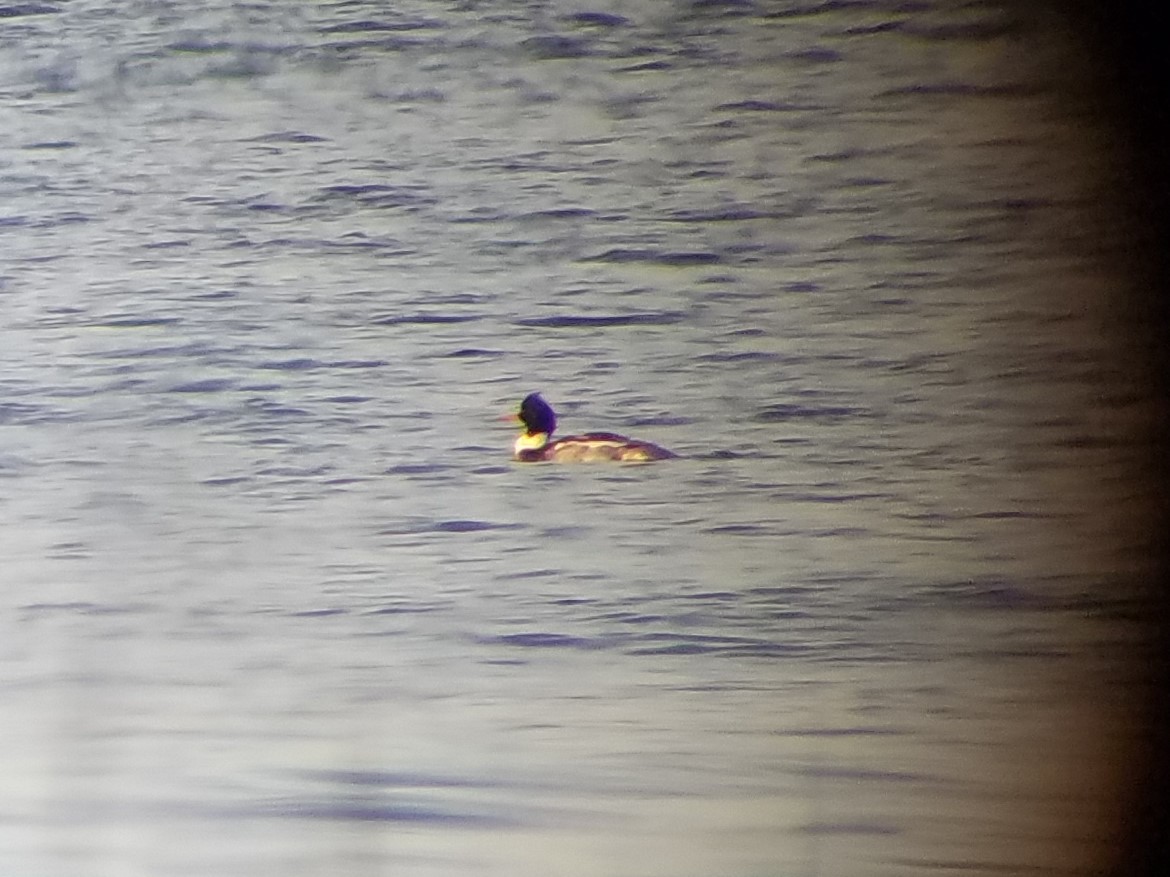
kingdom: Animalia
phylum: Chordata
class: Aves
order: Anseriformes
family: Anatidae
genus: Mergus
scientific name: Mergus serrator
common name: Red-breasted merganser
